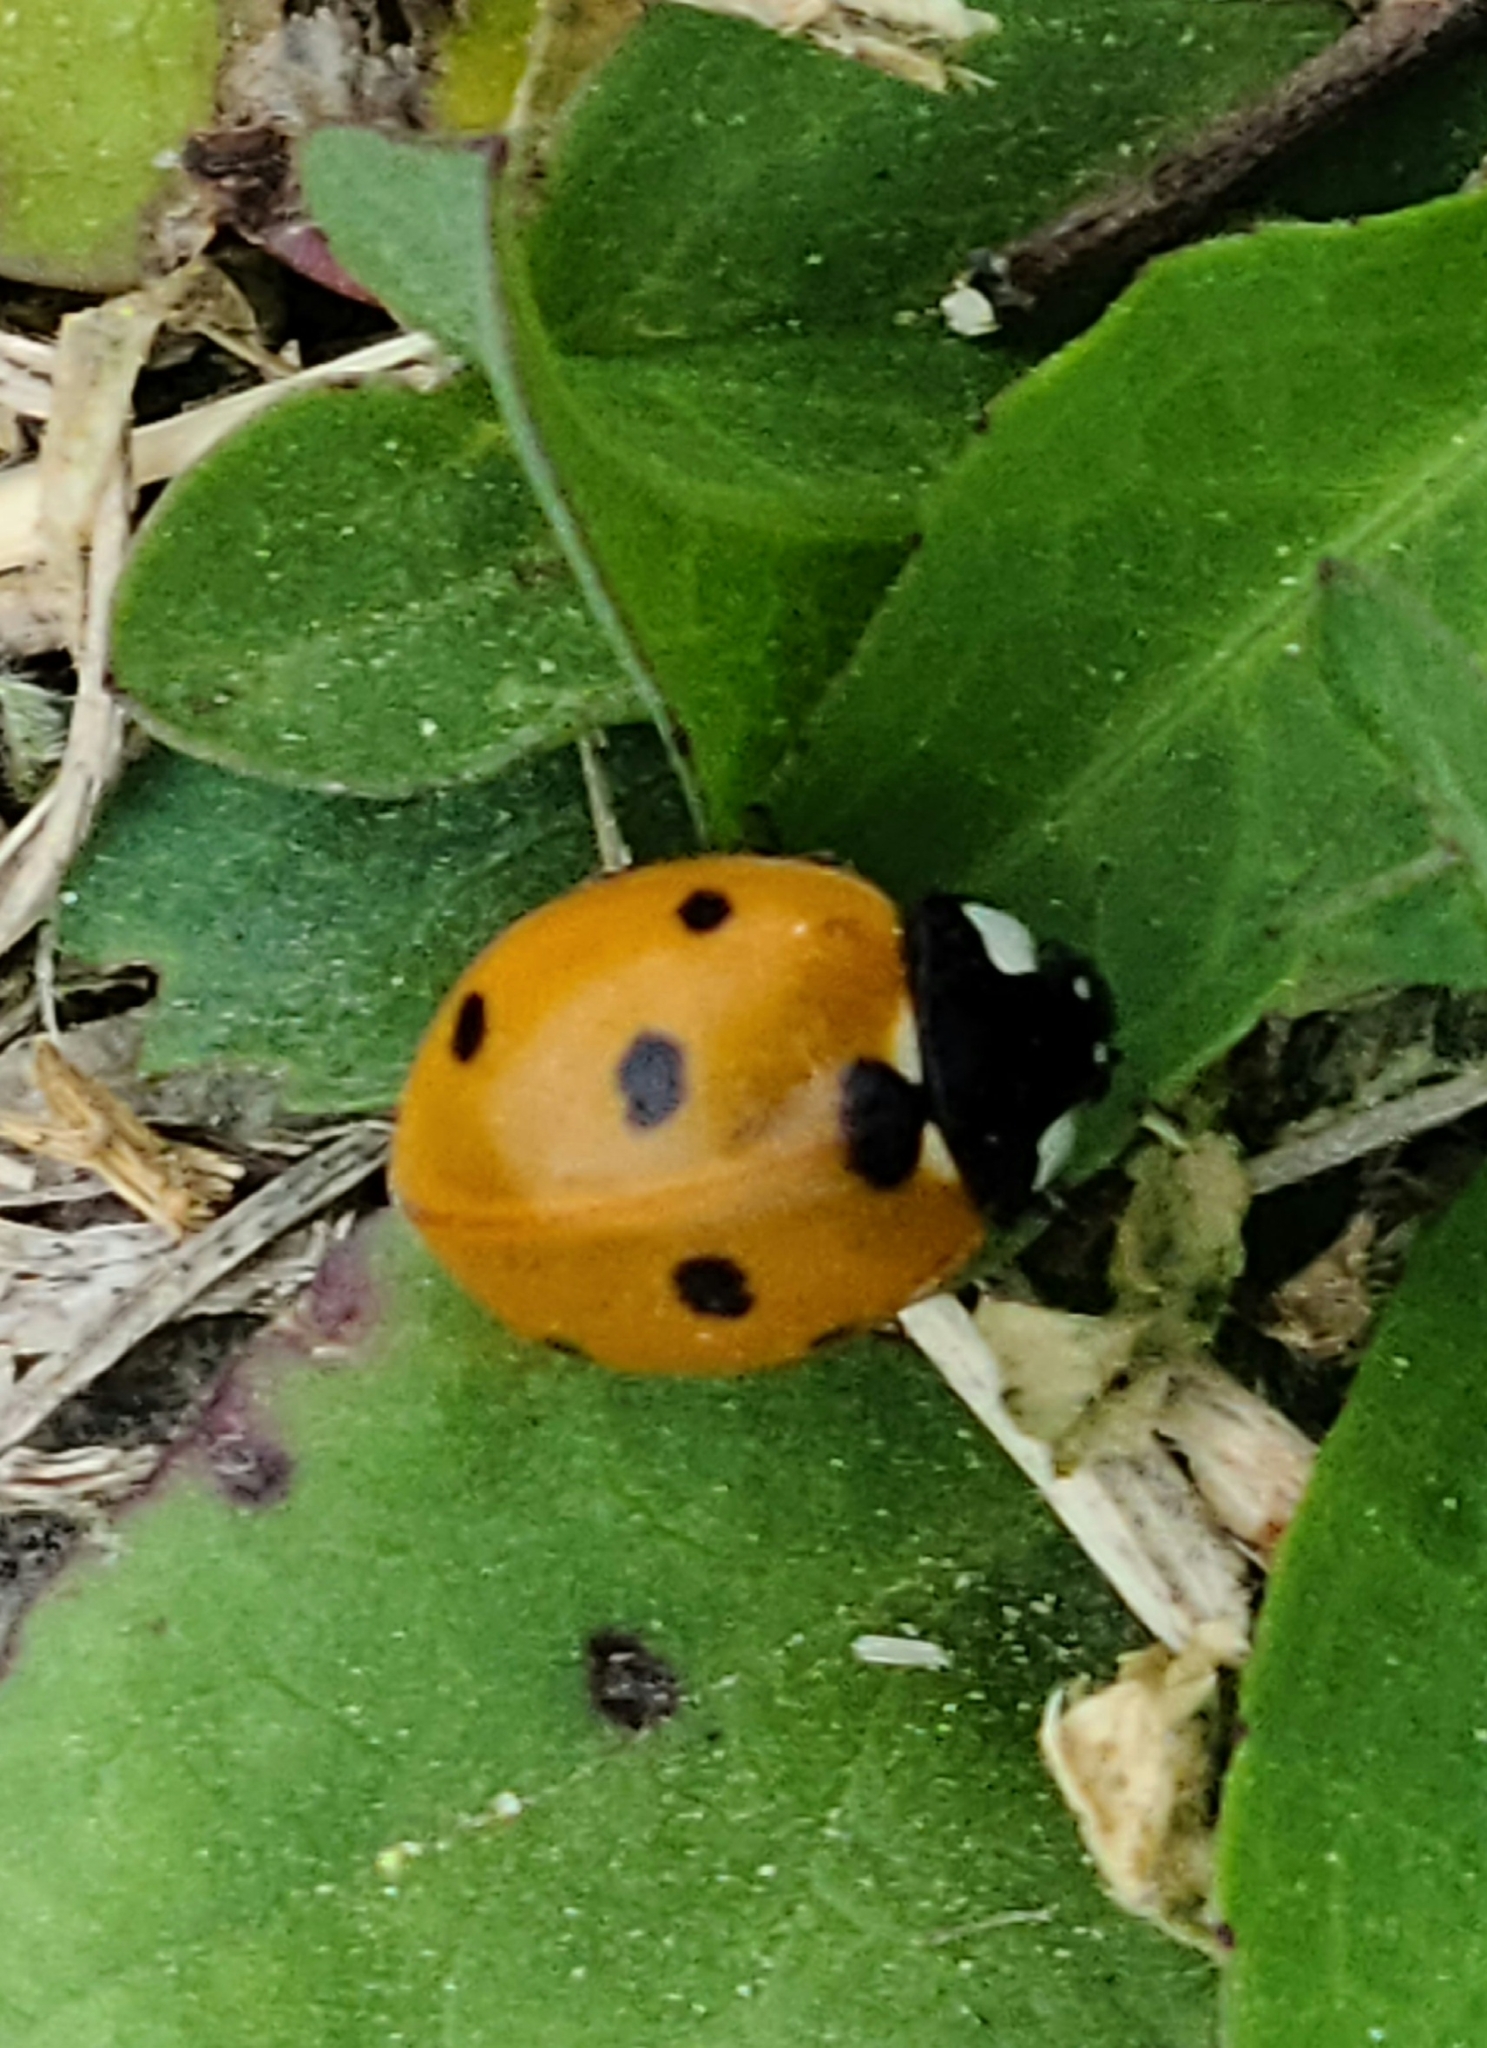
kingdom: Animalia
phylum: Arthropoda
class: Insecta
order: Coleoptera
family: Coccinellidae
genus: Coccinella
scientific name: Coccinella septempunctata
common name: Sevenspotted lady beetle
